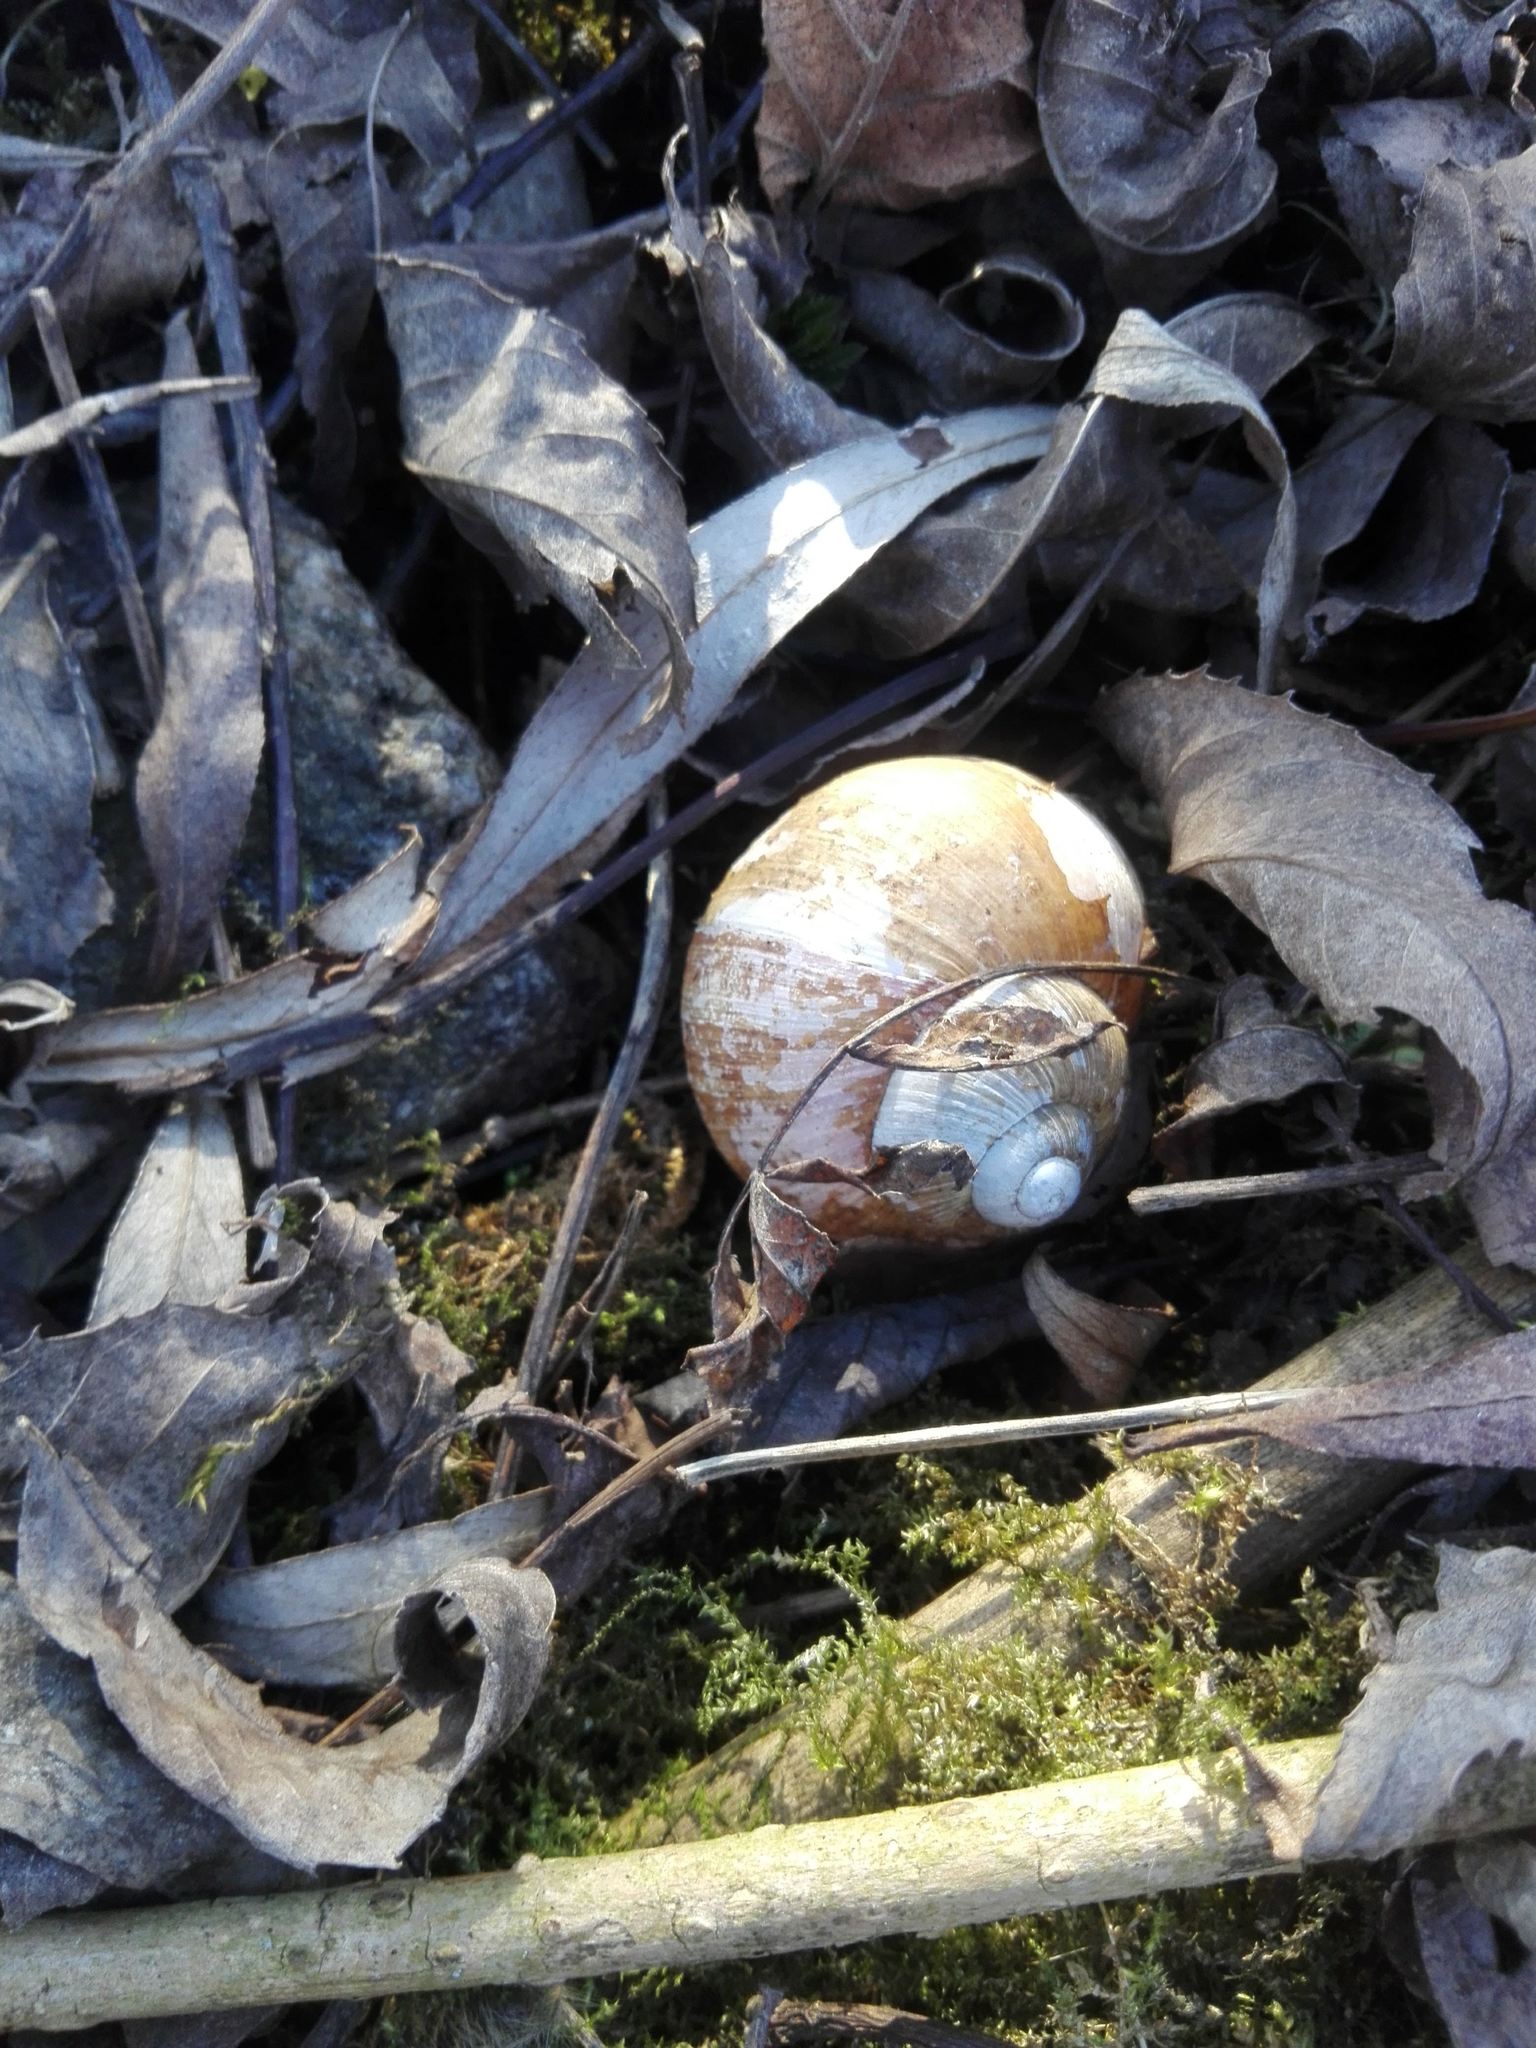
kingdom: Animalia
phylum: Mollusca
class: Gastropoda
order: Stylommatophora
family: Helicidae
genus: Helix
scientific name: Helix pomatia
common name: Roman snail
